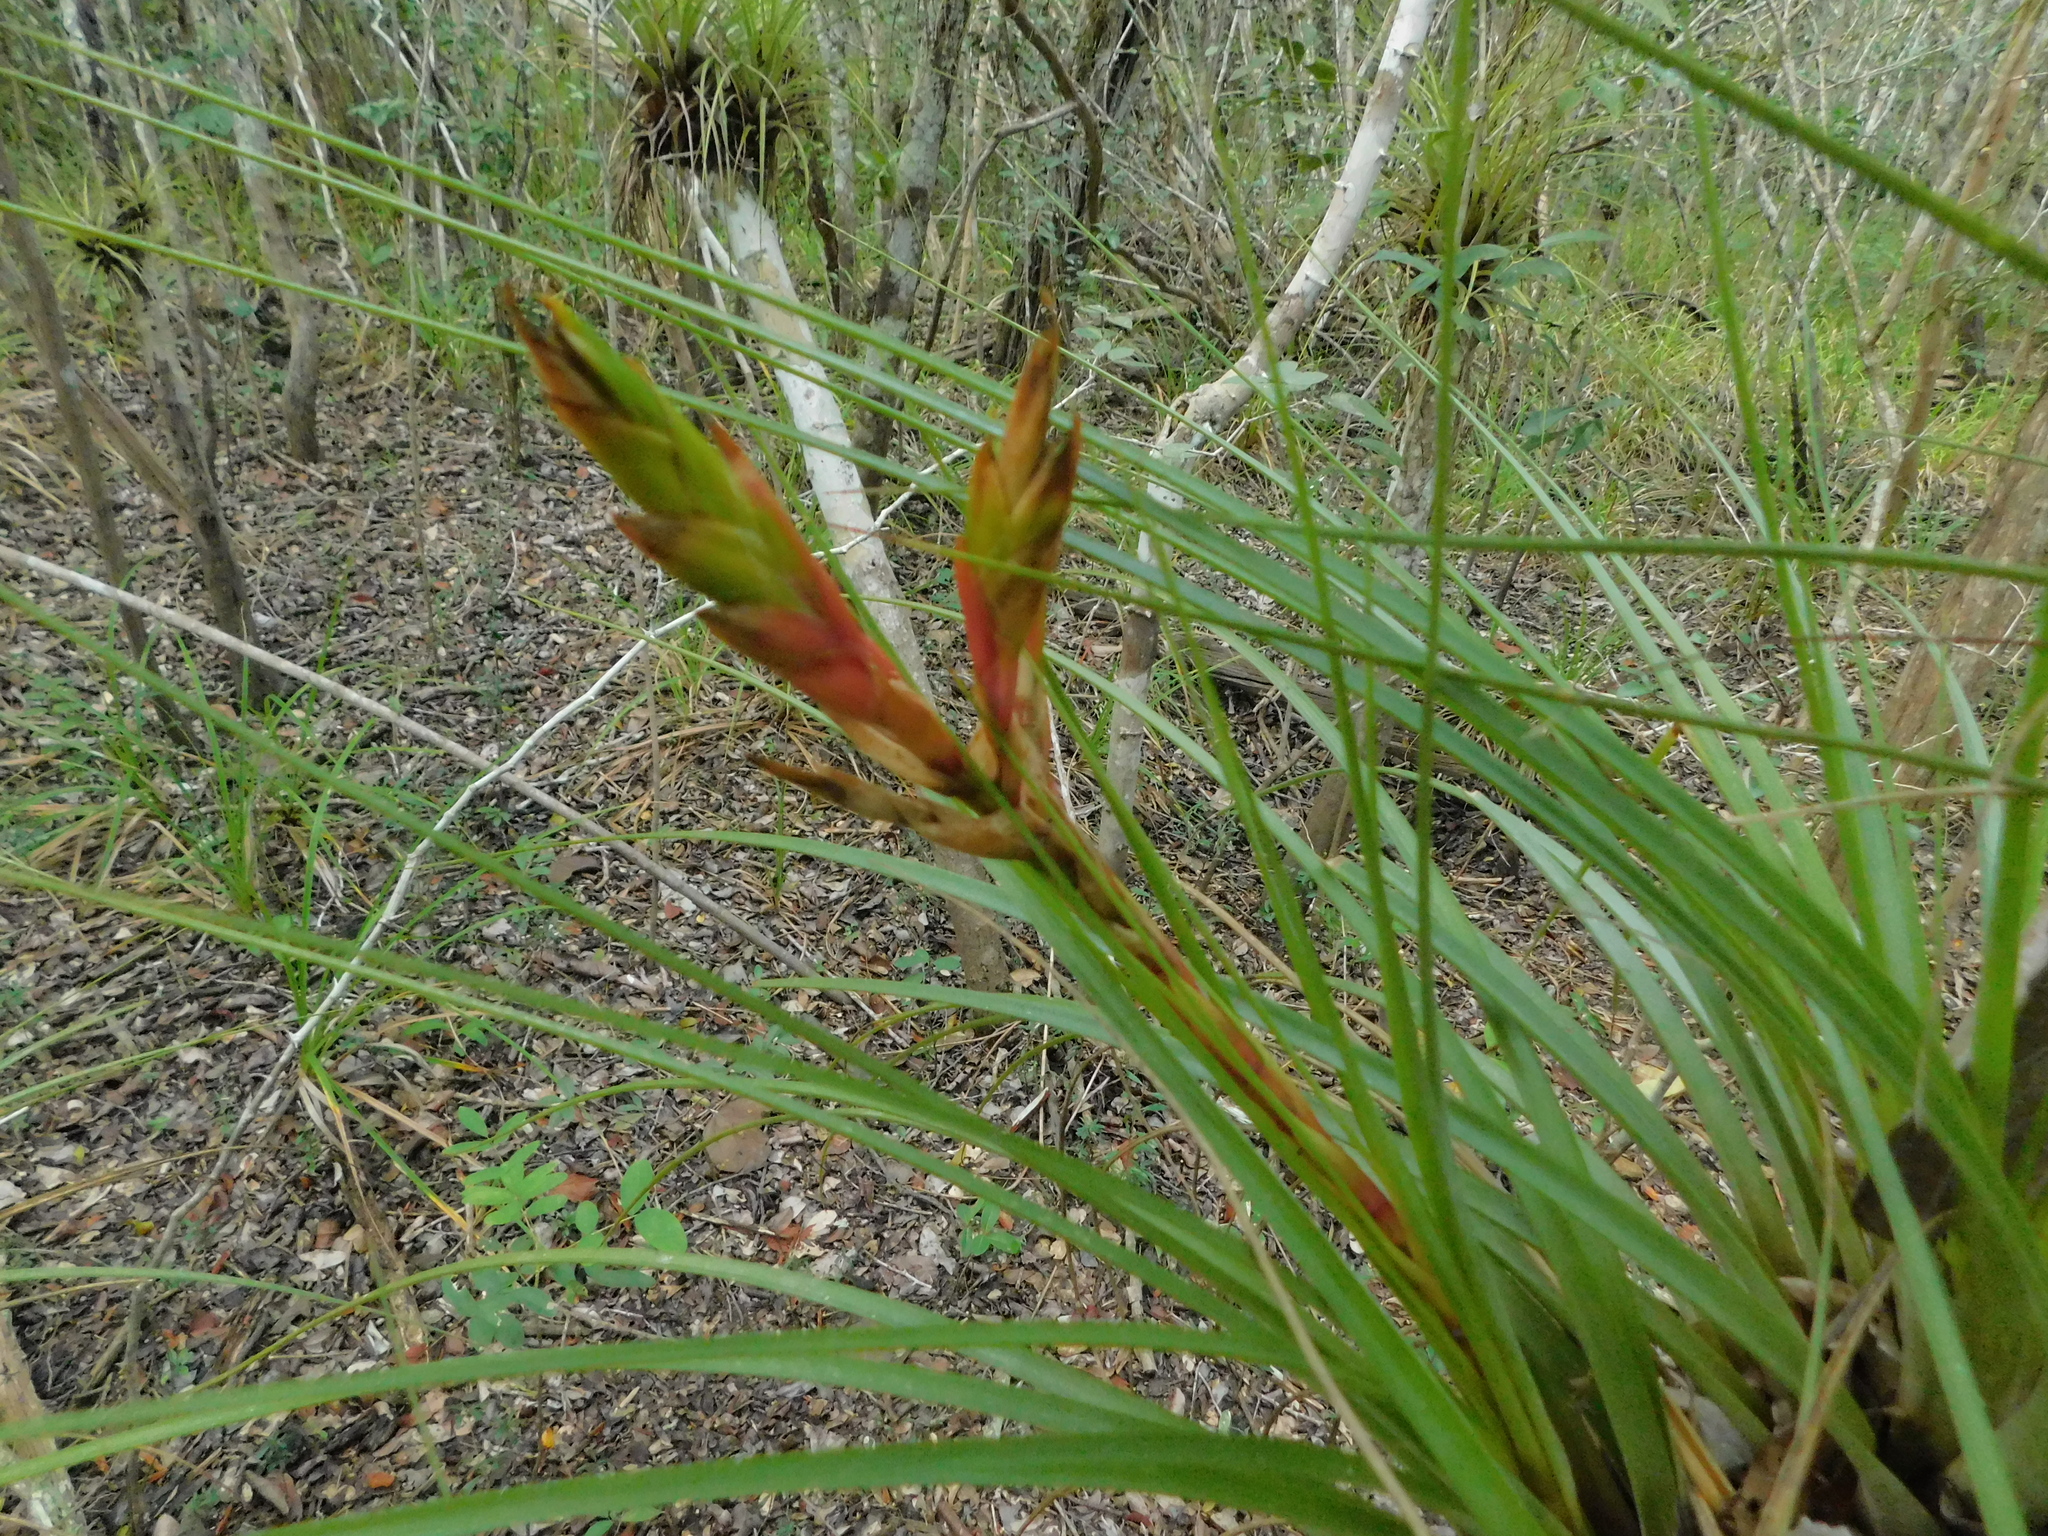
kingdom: Plantae
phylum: Tracheophyta
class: Liliopsida
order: Poales
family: Bromeliaceae
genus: Tillandsia
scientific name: Tillandsia fasciculata
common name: Giant airplant
